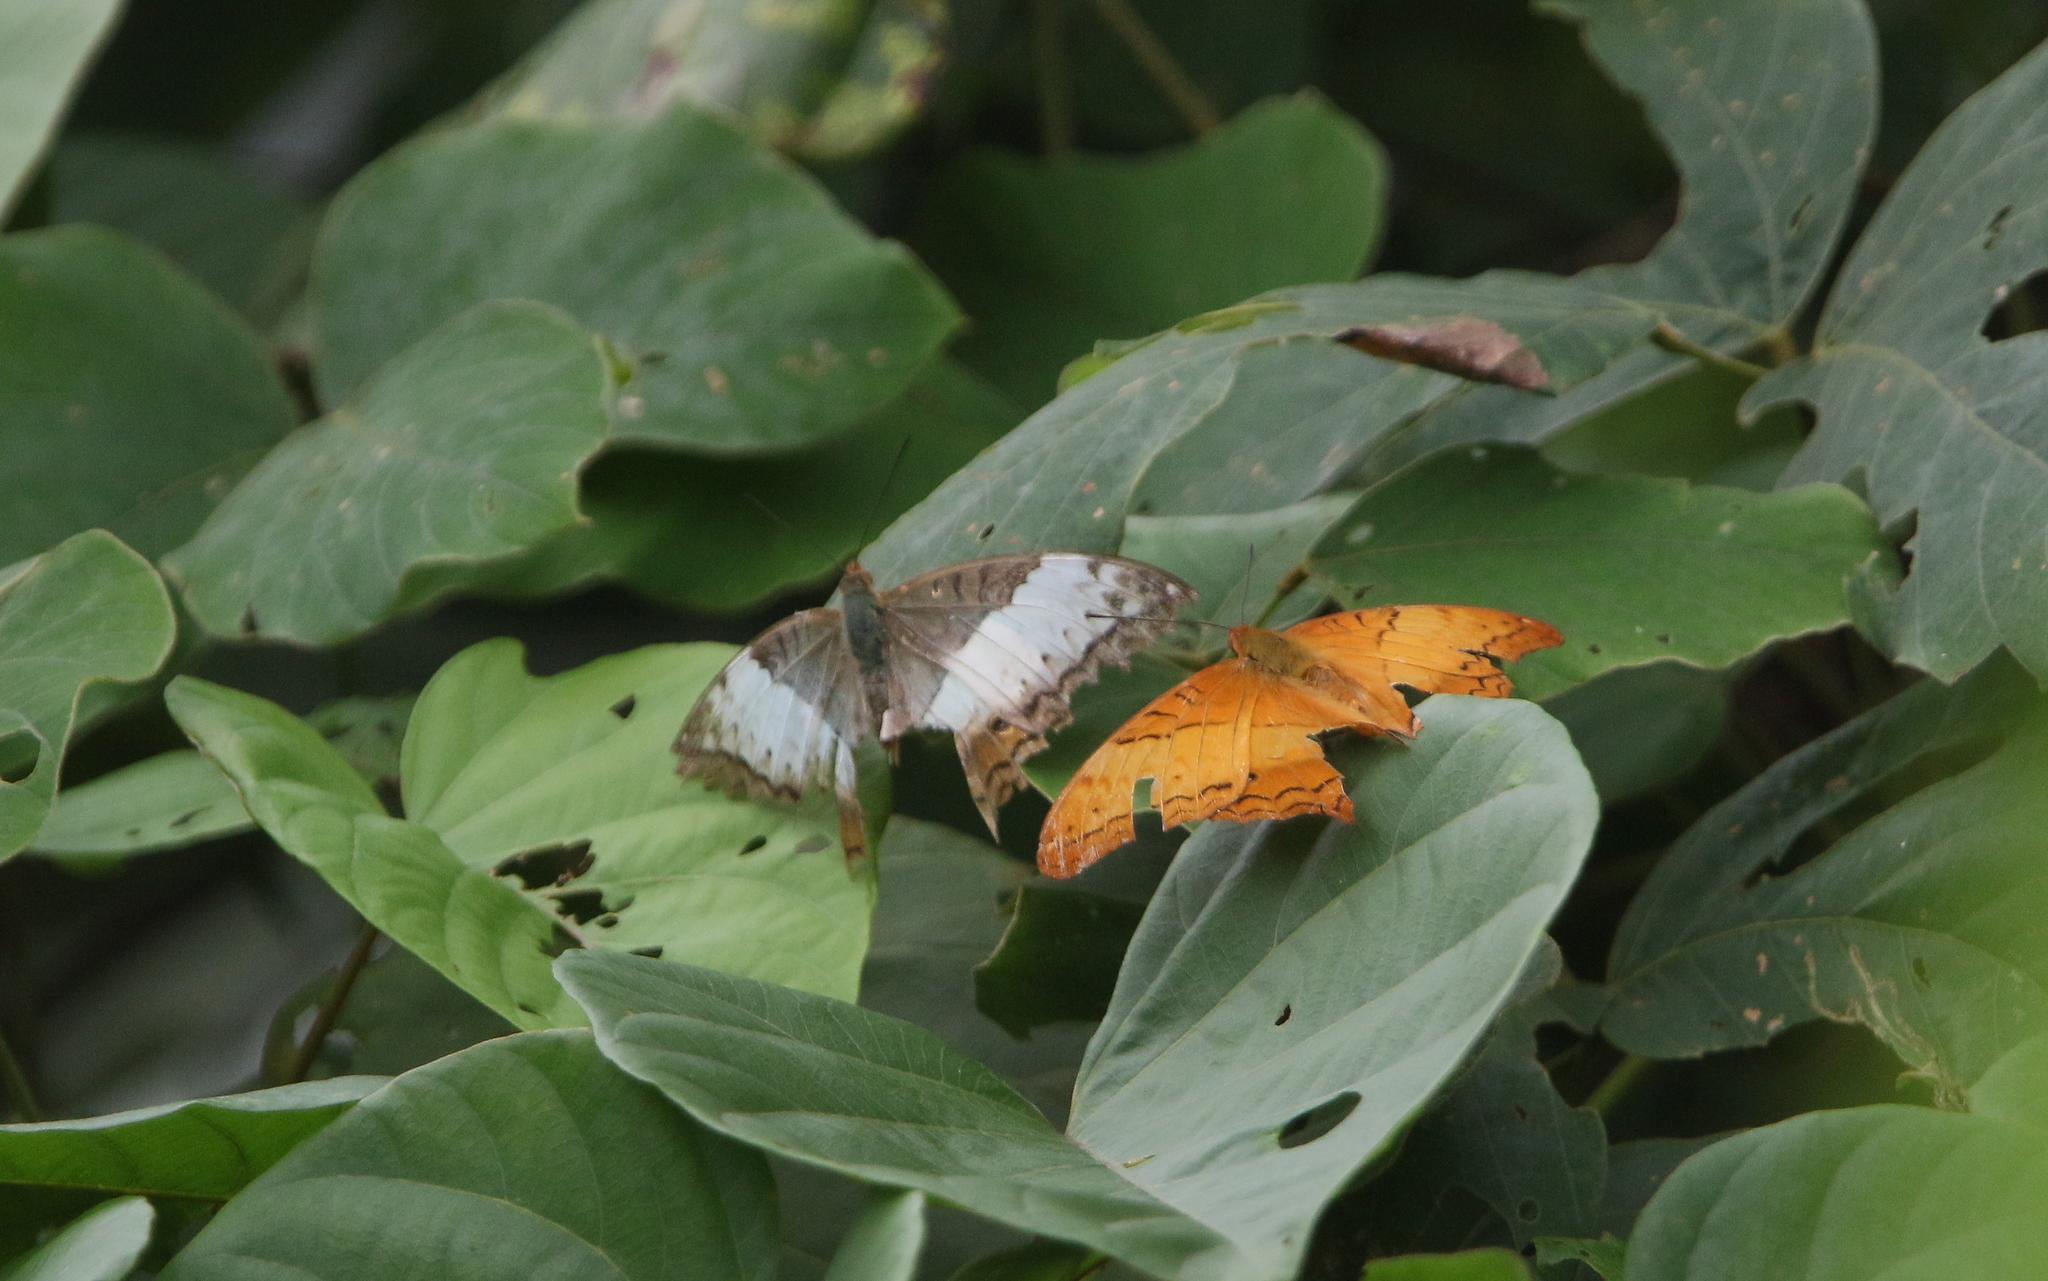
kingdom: Animalia
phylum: Arthropoda
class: Insecta
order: Lepidoptera
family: Nymphalidae
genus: Vindula
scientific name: Vindula erota
